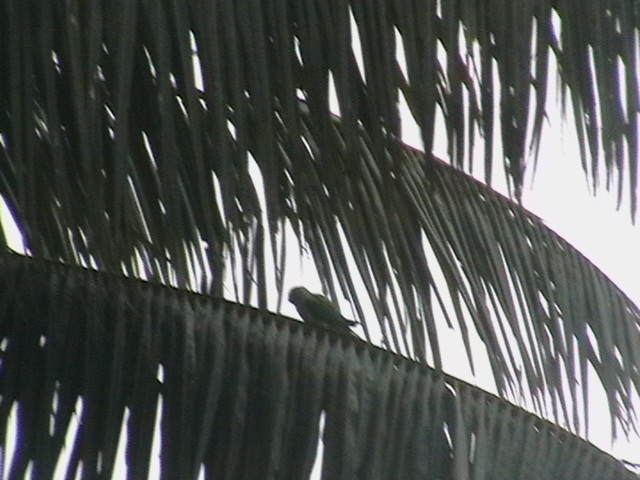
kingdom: Animalia
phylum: Chordata
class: Aves
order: Psittaciformes
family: Psittacidae
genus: Psittacula
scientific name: Psittacula krameri
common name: Rose-ringed parakeet
